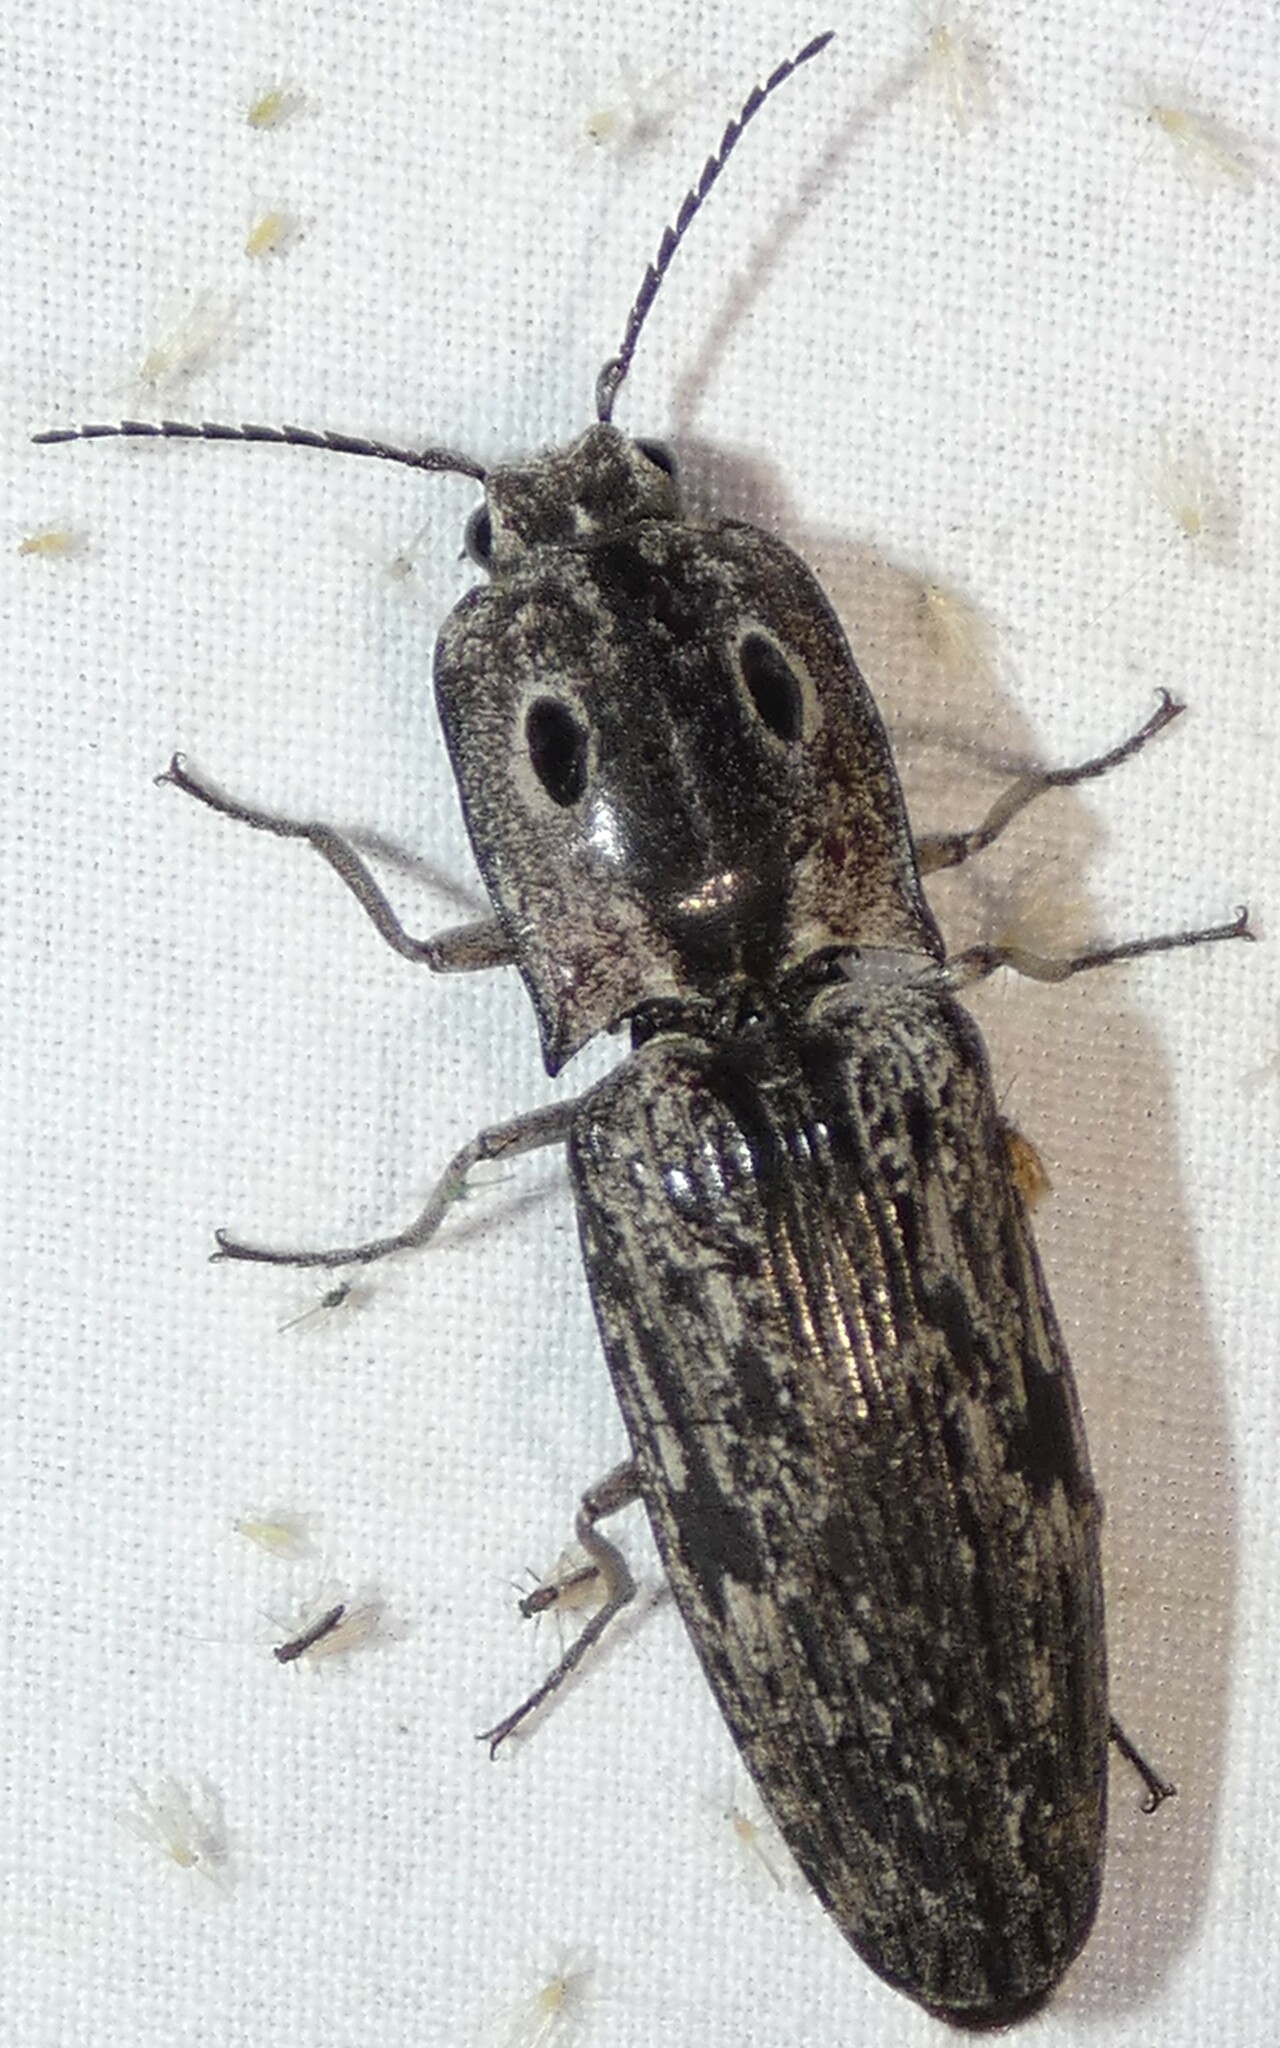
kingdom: Animalia
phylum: Arthropoda
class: Insecta
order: Coleoptera
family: Elateridae
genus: Alaus
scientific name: Alaus myops
